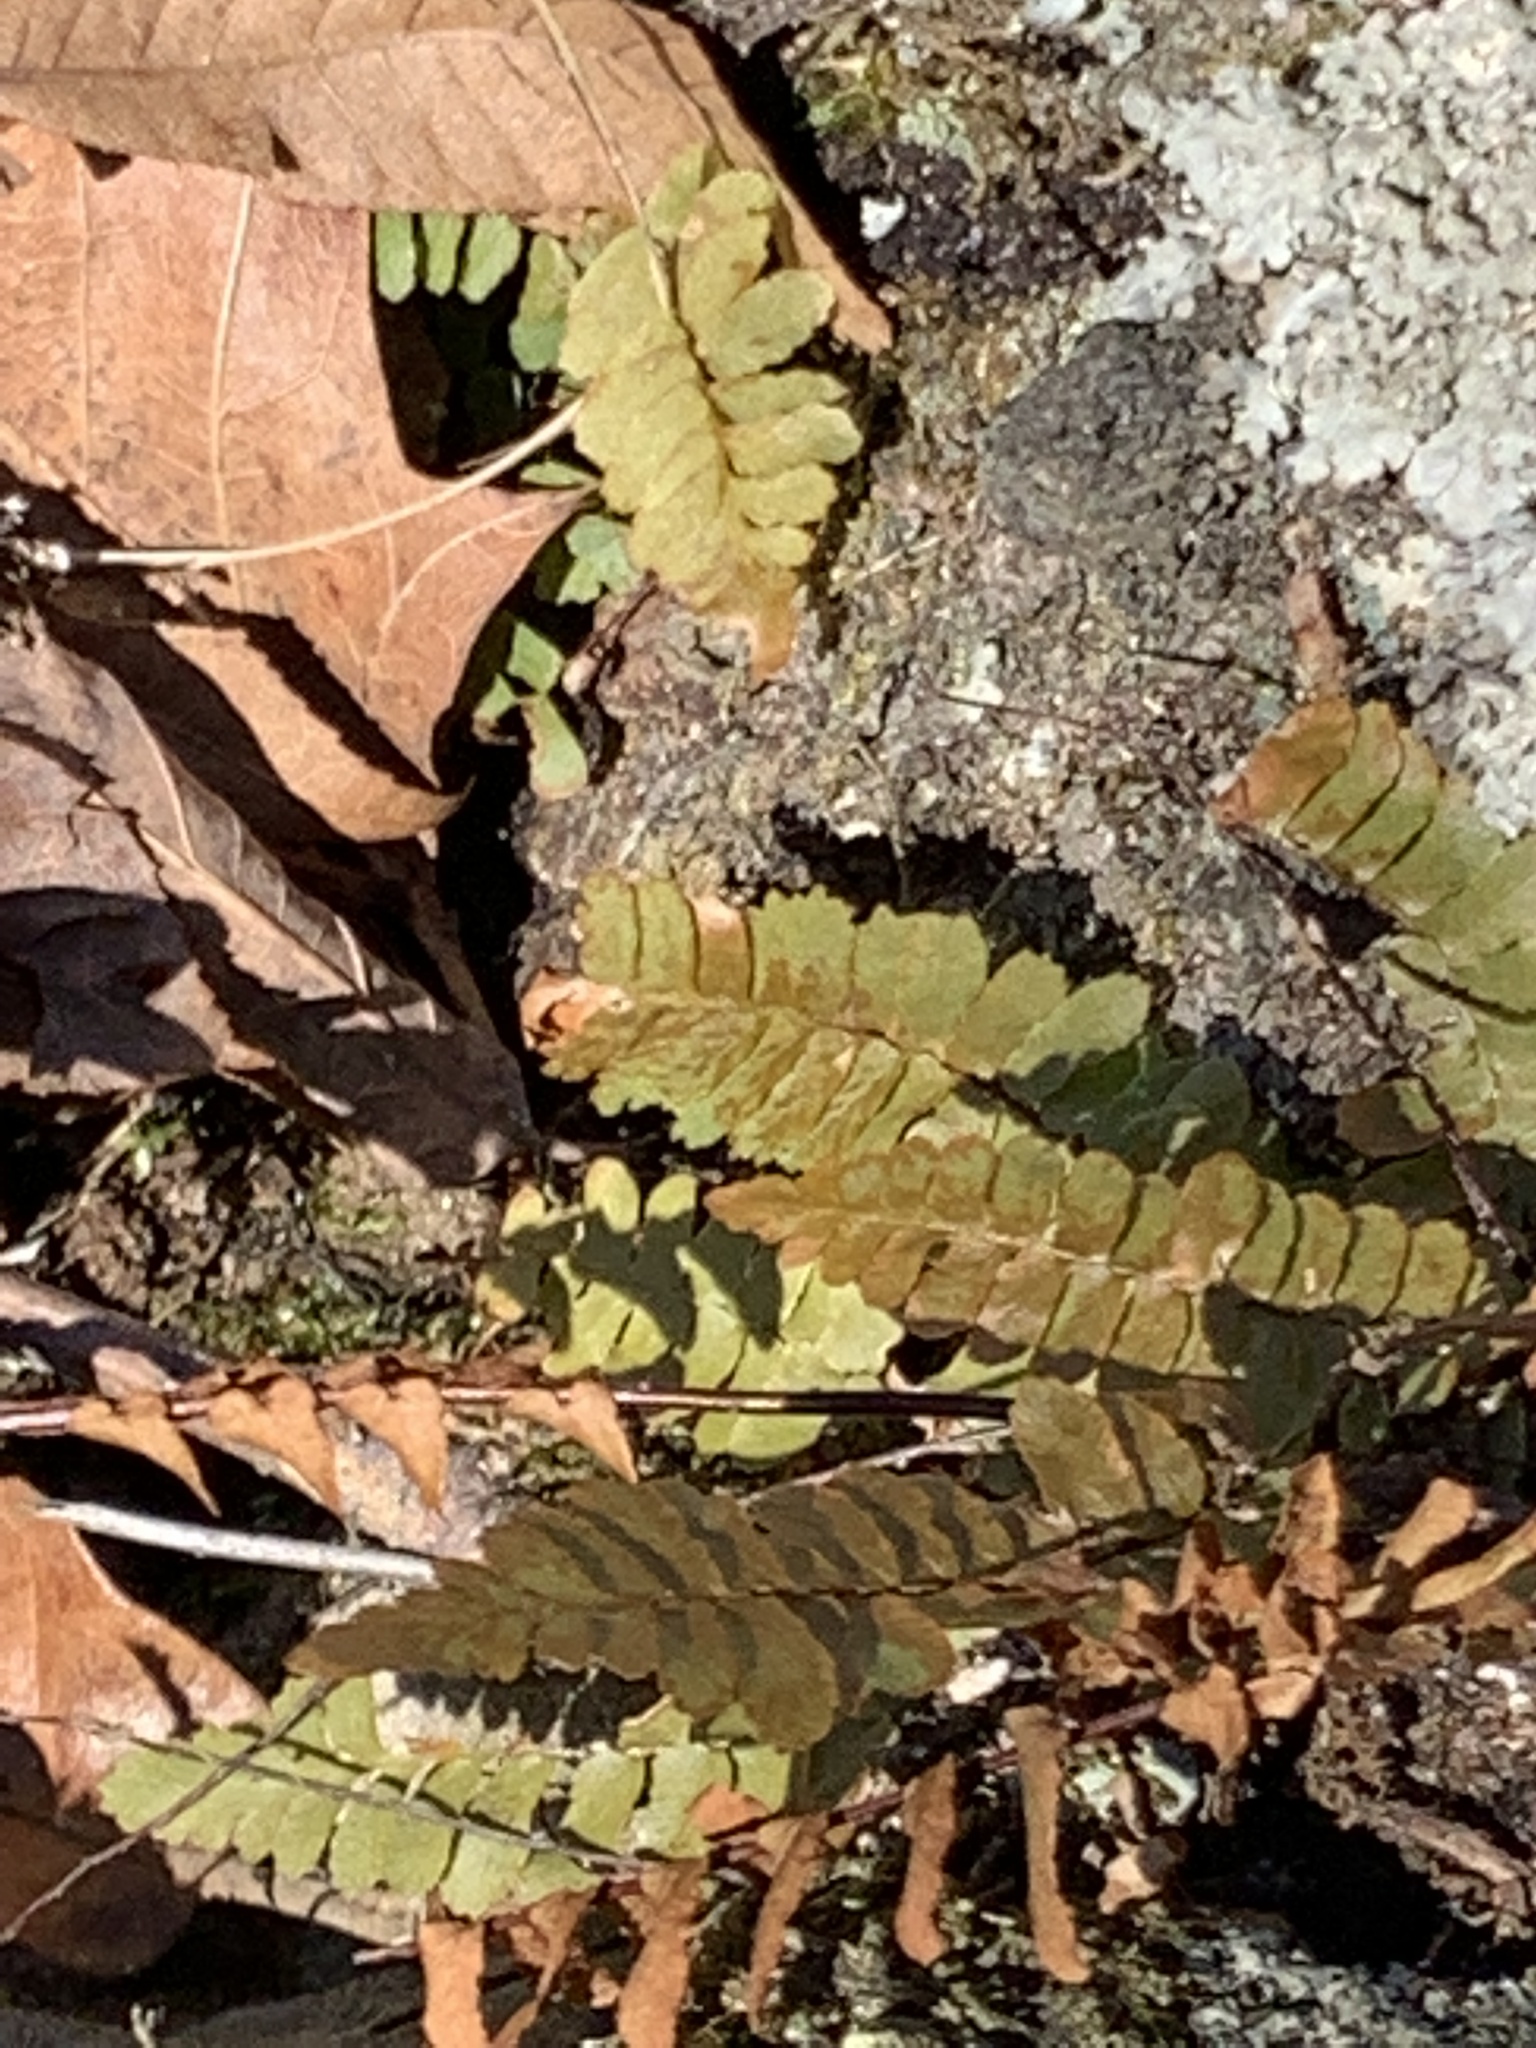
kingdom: Plantae
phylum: Tracheophyta
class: Polypodiopsida
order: Polypodiales
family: Aspleniaceae
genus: Asplenium
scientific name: Asplenium platyneuron
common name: Ebony spleenwort
